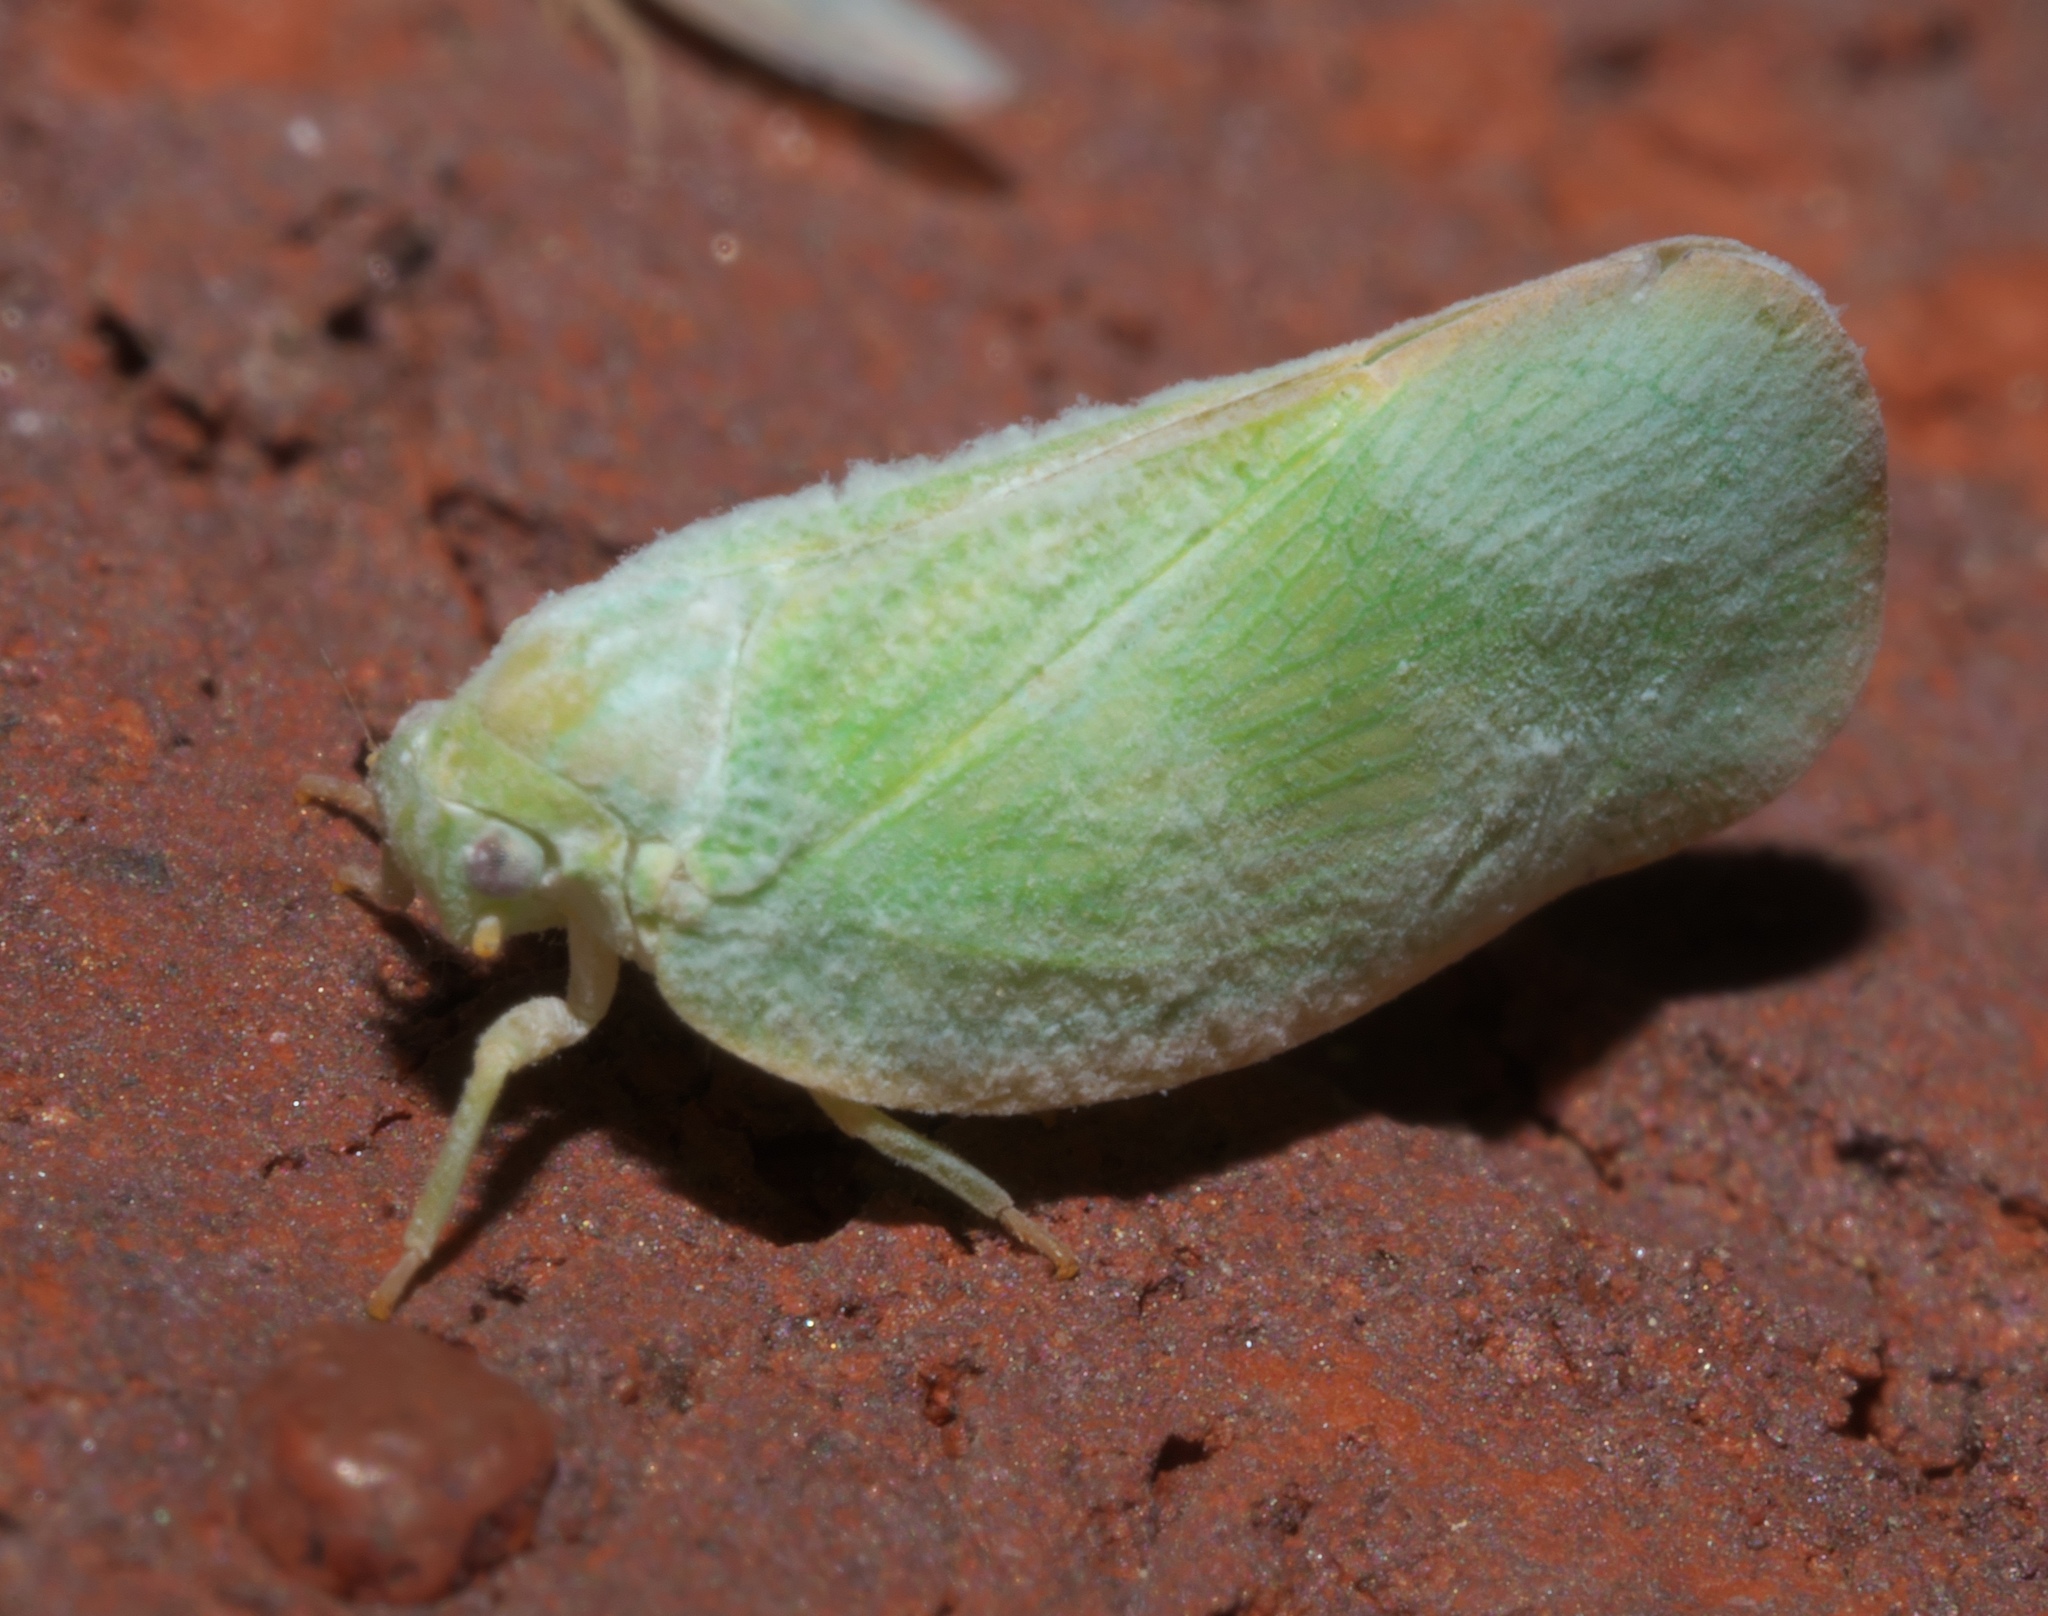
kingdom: Animalia
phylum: Arthropoda
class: Insecta
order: Hemiptera
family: Flatidae
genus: Ormenoides
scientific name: Ormenoides venusta
